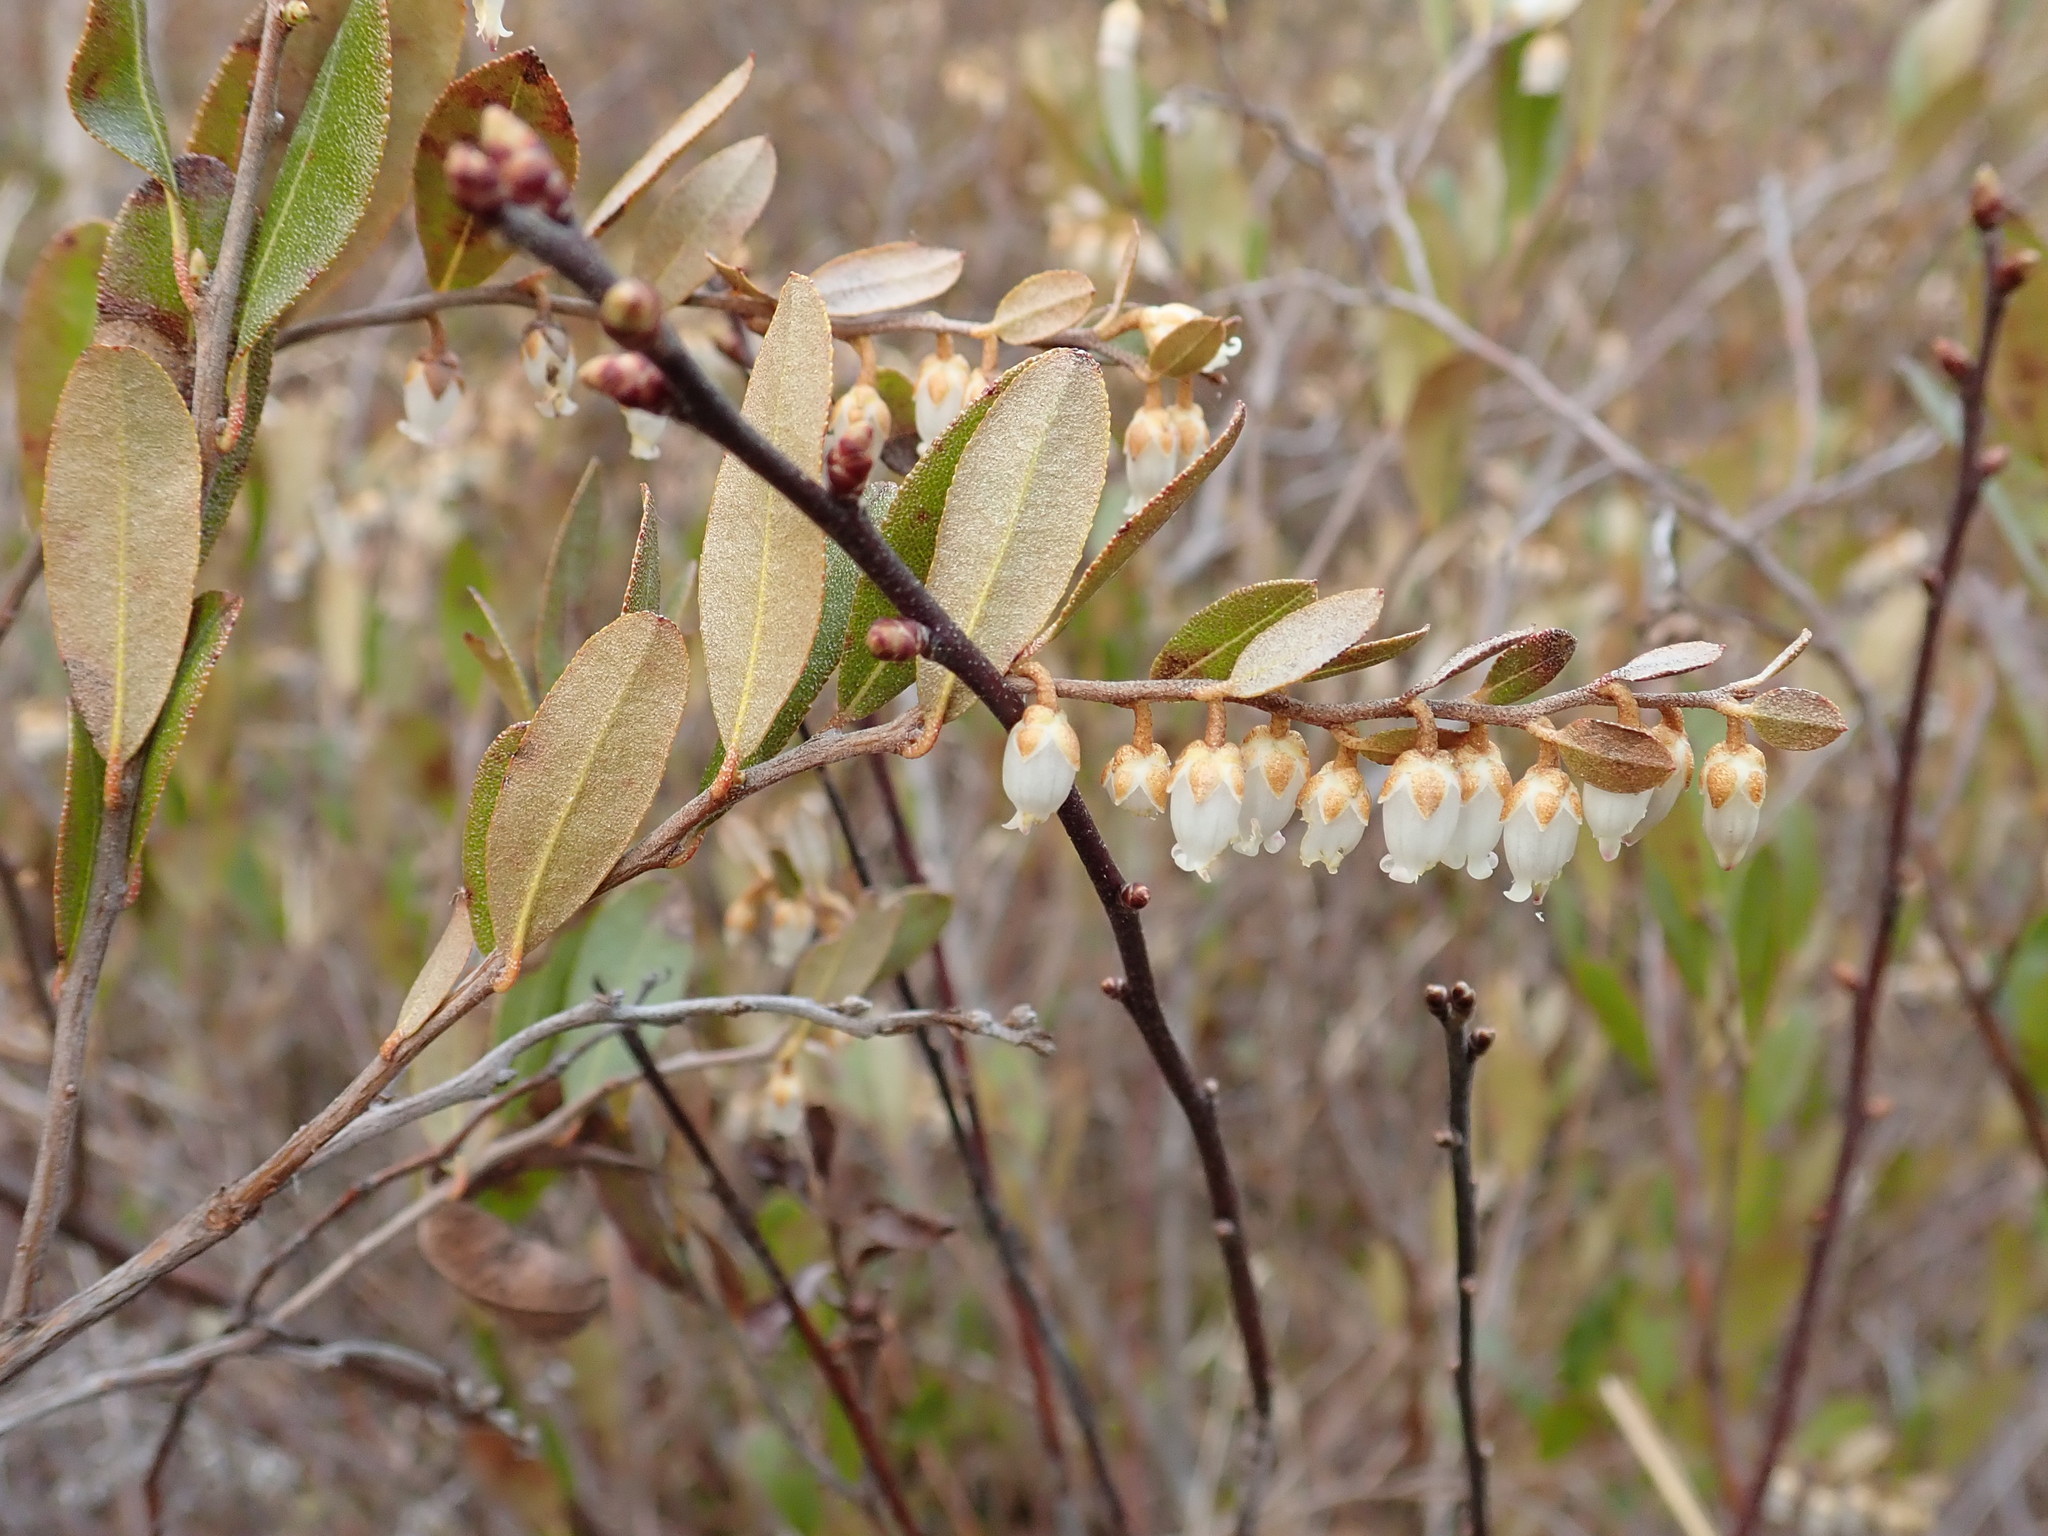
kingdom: Plantae
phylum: Tracheophyta
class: Magnoliopsida
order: Ericales
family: Ericaceae
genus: Chamaedaphne
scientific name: Chamaedaphne calyculata
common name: Leatherleaf
